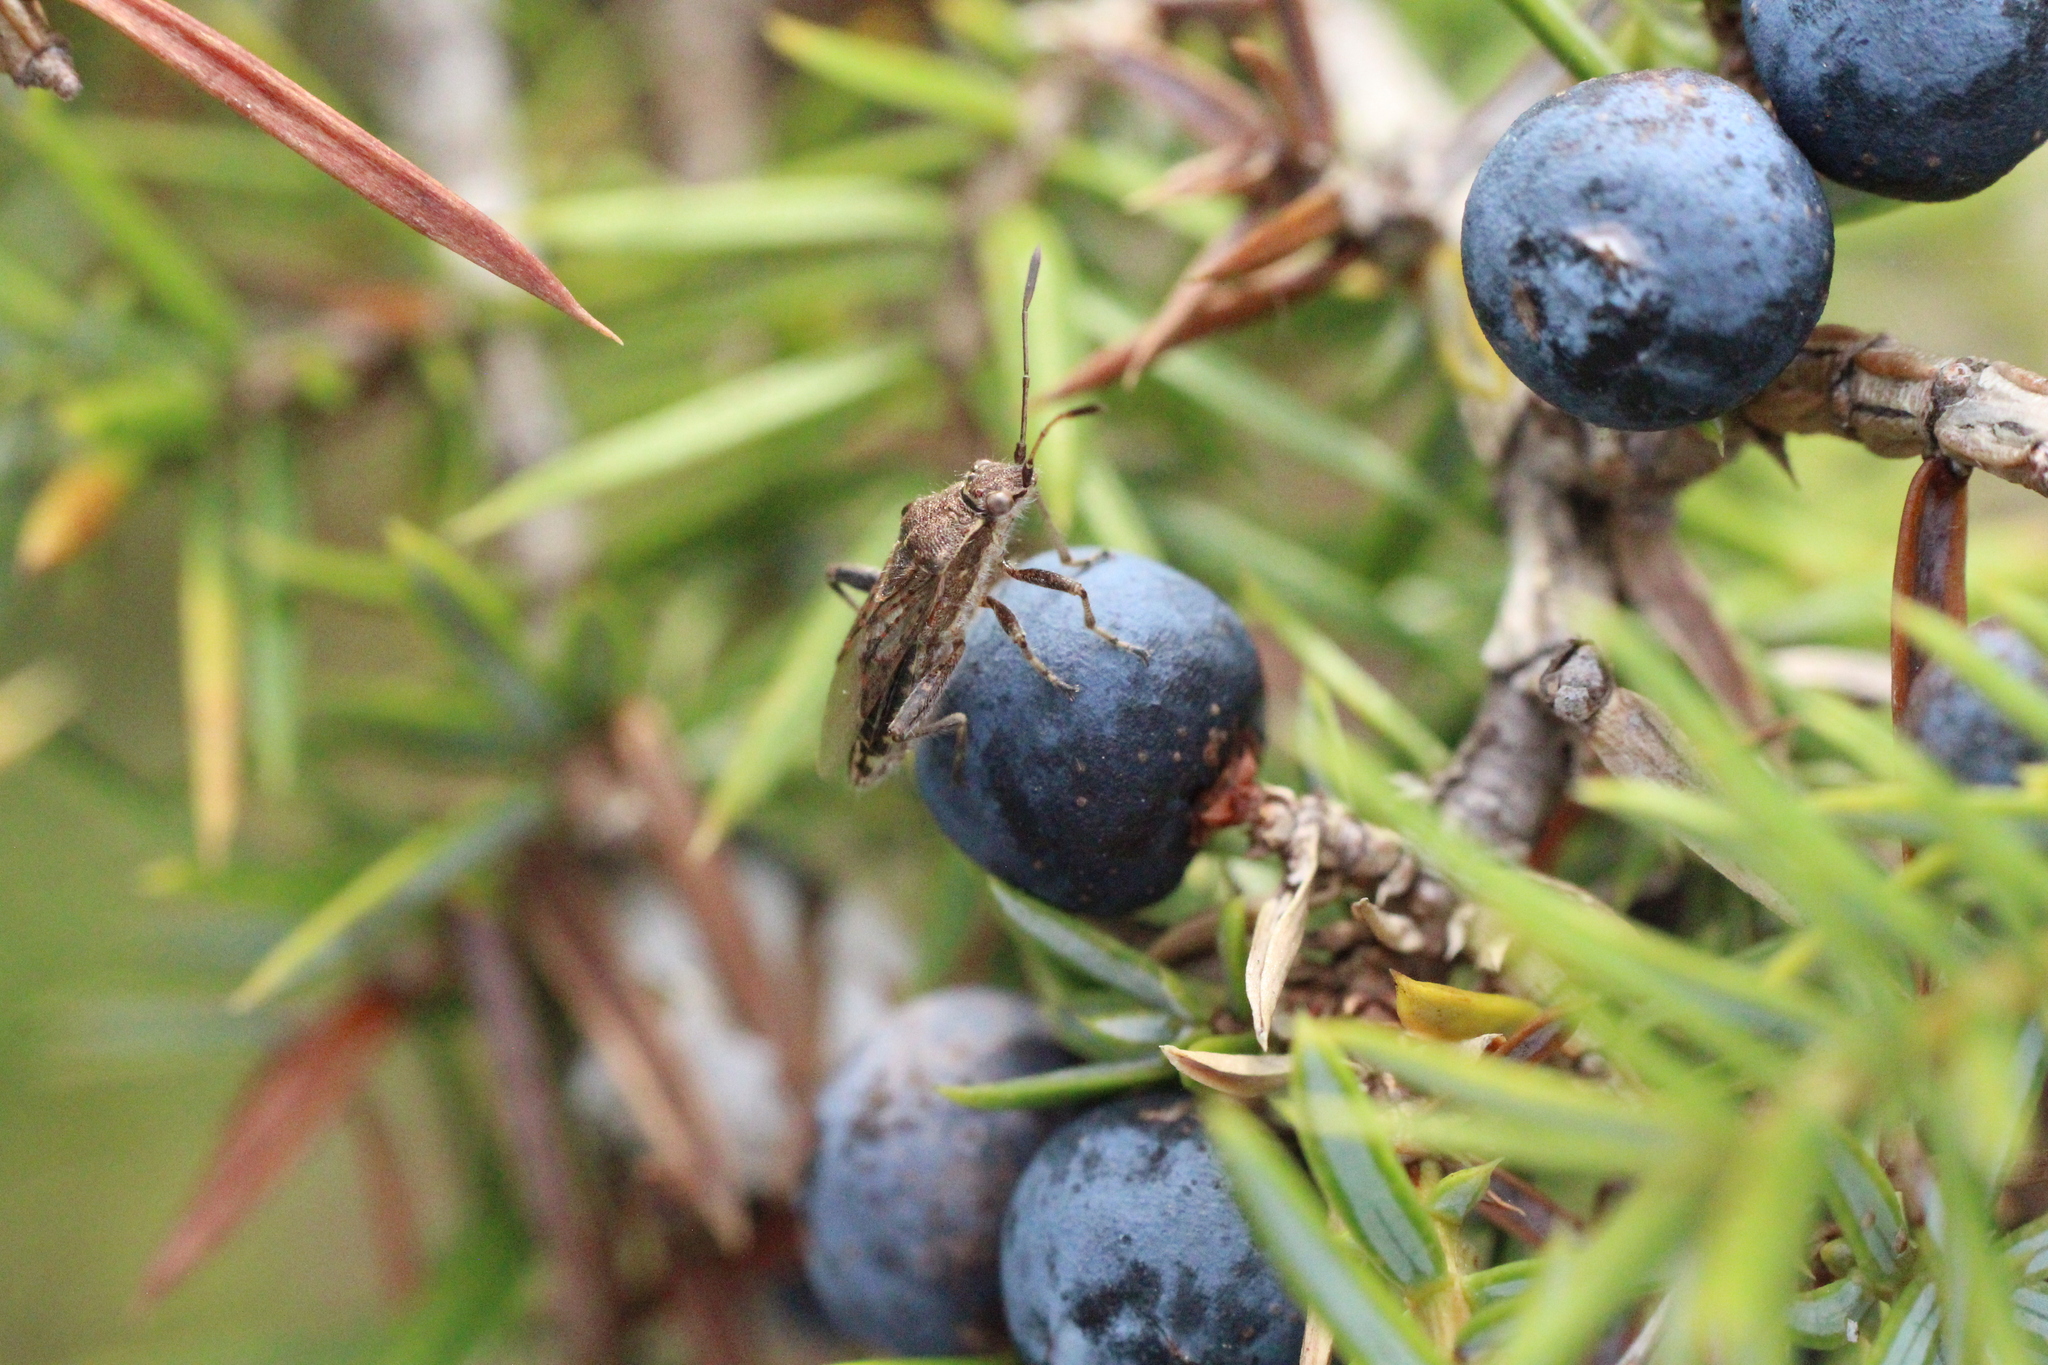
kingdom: Animalia
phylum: Arthropoda
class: Insecta
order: Hemiptera
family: Rhopalidae
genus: Stictopleurus
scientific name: Stictopleurus punctatonervosus
